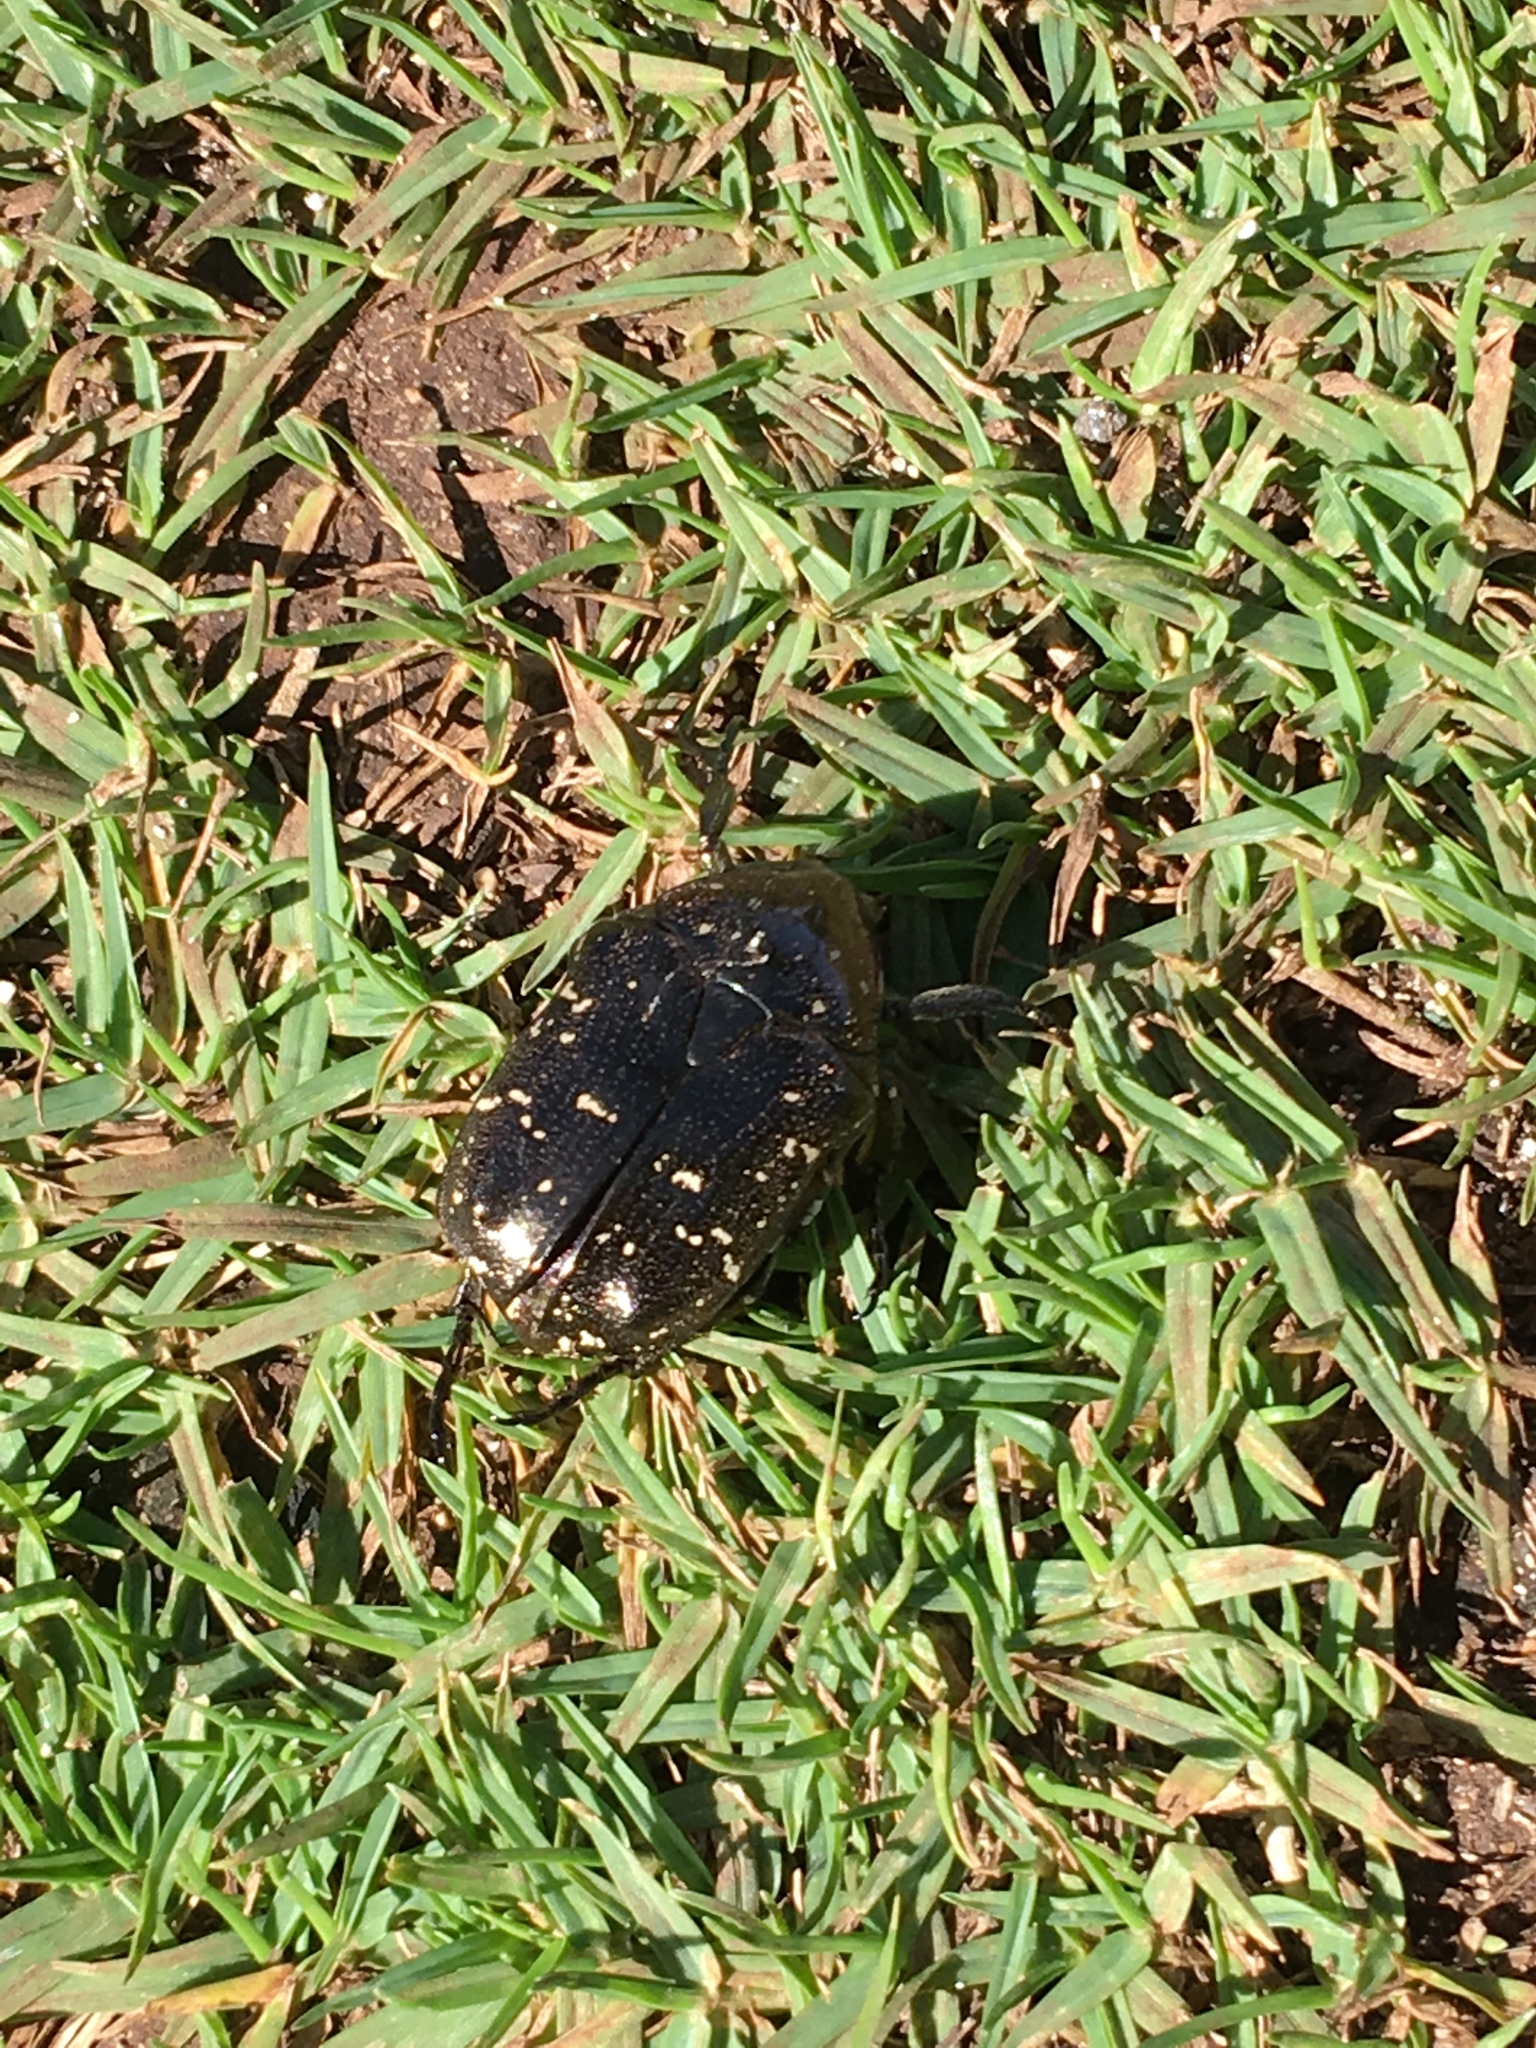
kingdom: Animalia
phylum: Arthropoda
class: Insecta
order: Coleoptera
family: Scarabaeidae
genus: Protaetia
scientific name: Protaetia orientalis
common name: Oriental flower beetle
